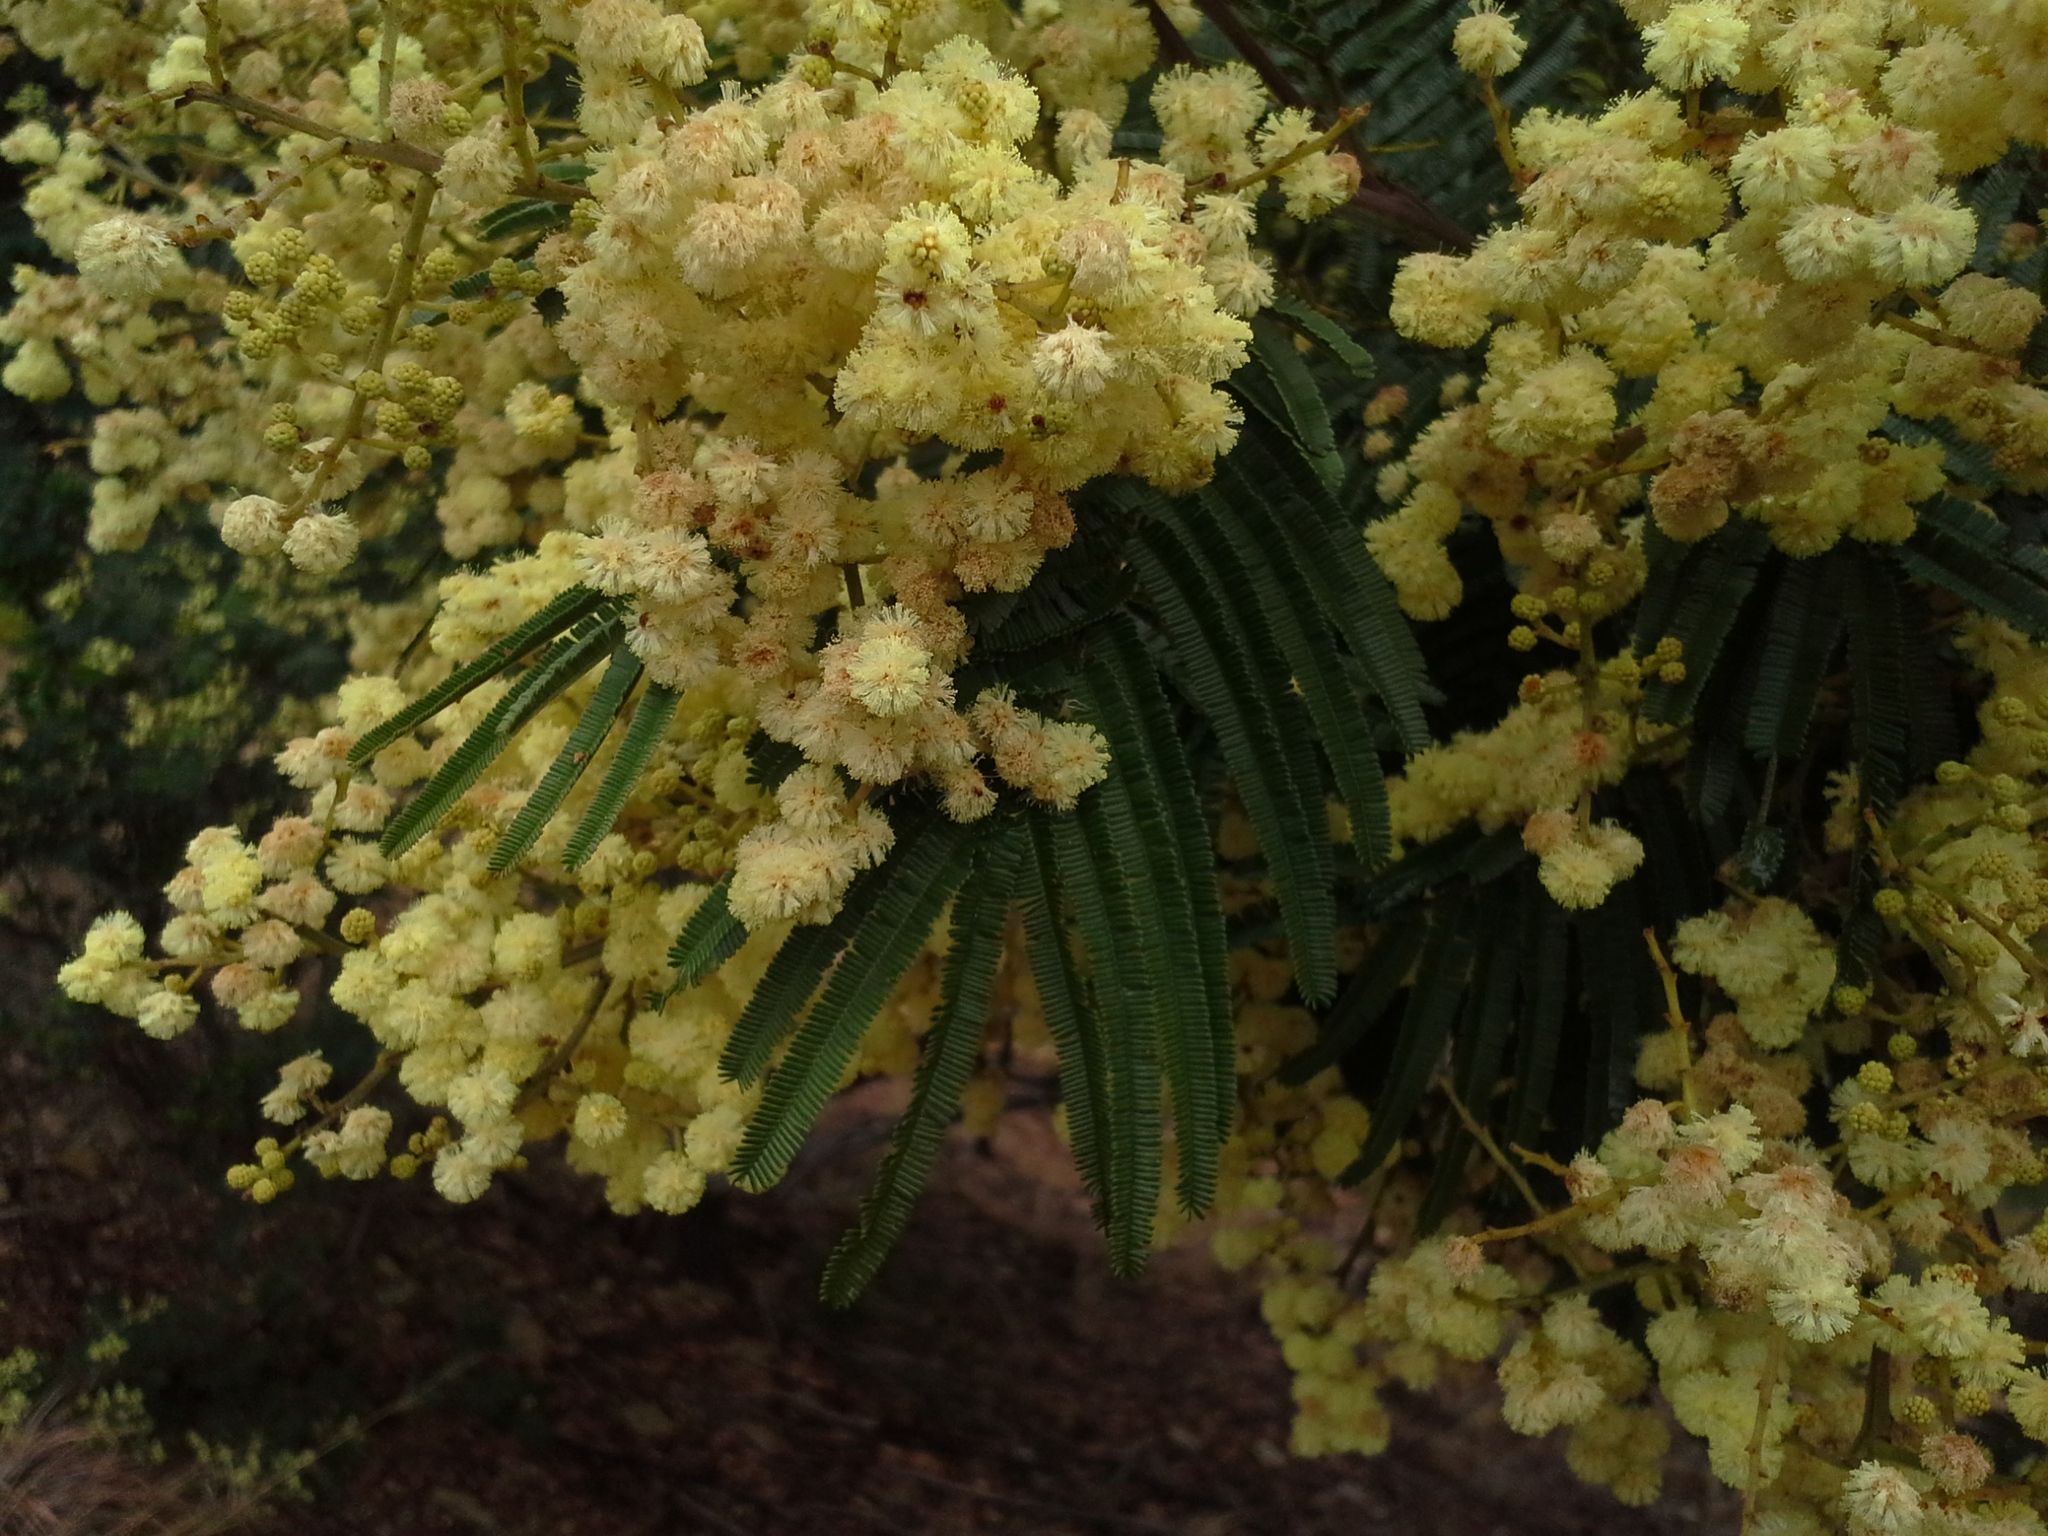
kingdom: Plantae
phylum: Tracheophyta
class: Magnoliopsida
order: Fabales
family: Fabaceae
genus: Acacia
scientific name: Acacia mearnsii
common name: Black wattle
